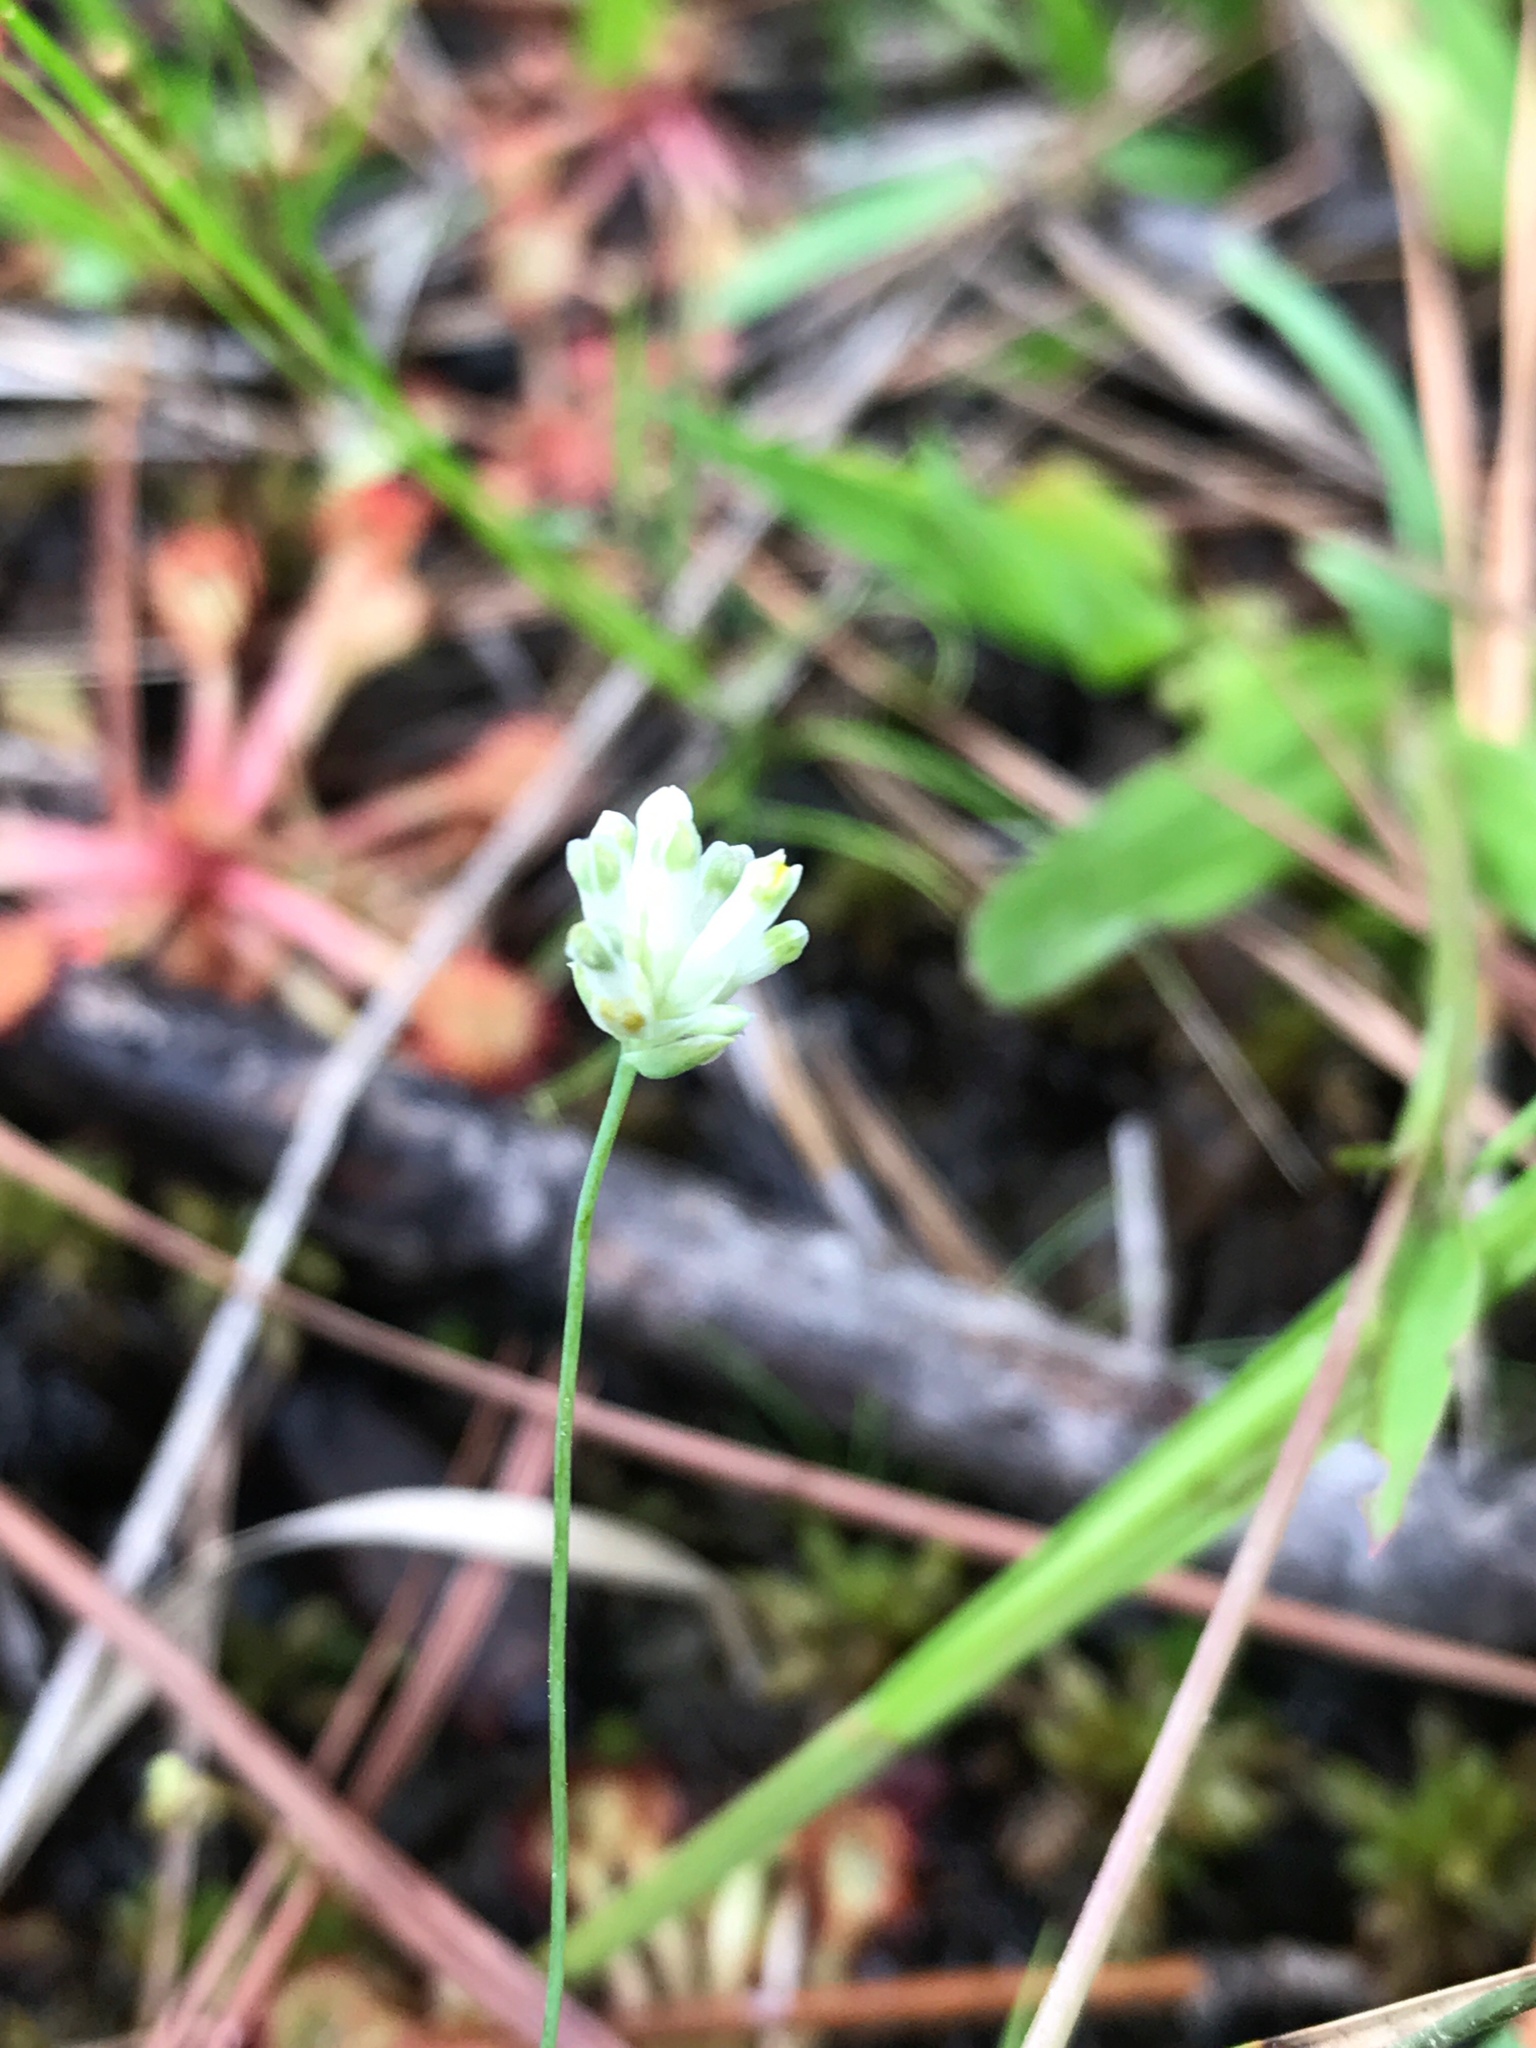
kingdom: Plantae
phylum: Tracheophyta
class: Liliopsida
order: Dioscoreales
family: Burmanniaceae
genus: Burmannia
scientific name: Burmannia capitata
